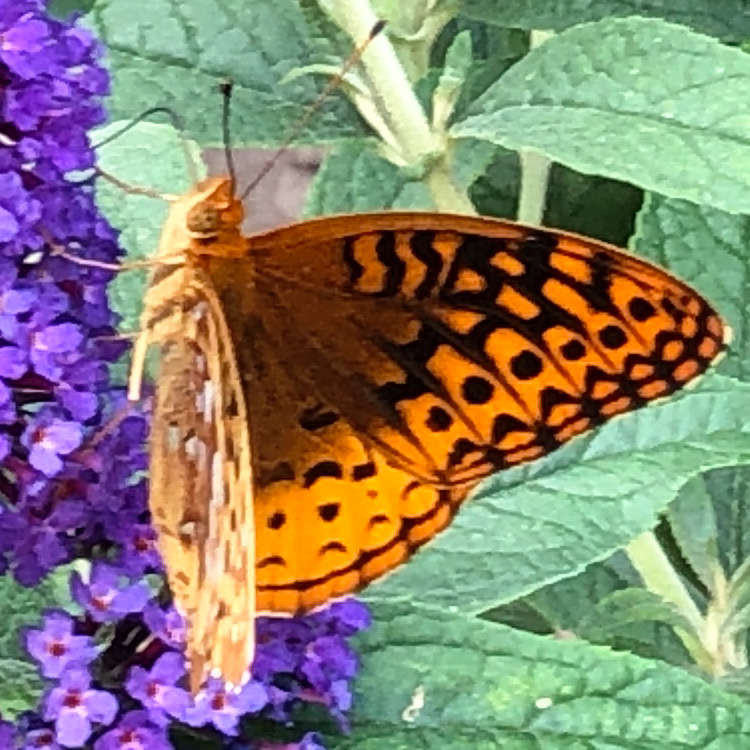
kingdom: Animalia
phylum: Arthropoda
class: Insecta
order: Lepidoptera
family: Nymphalidae
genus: Speyeria
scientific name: Speyeria cybele
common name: Great spangled fritillary
